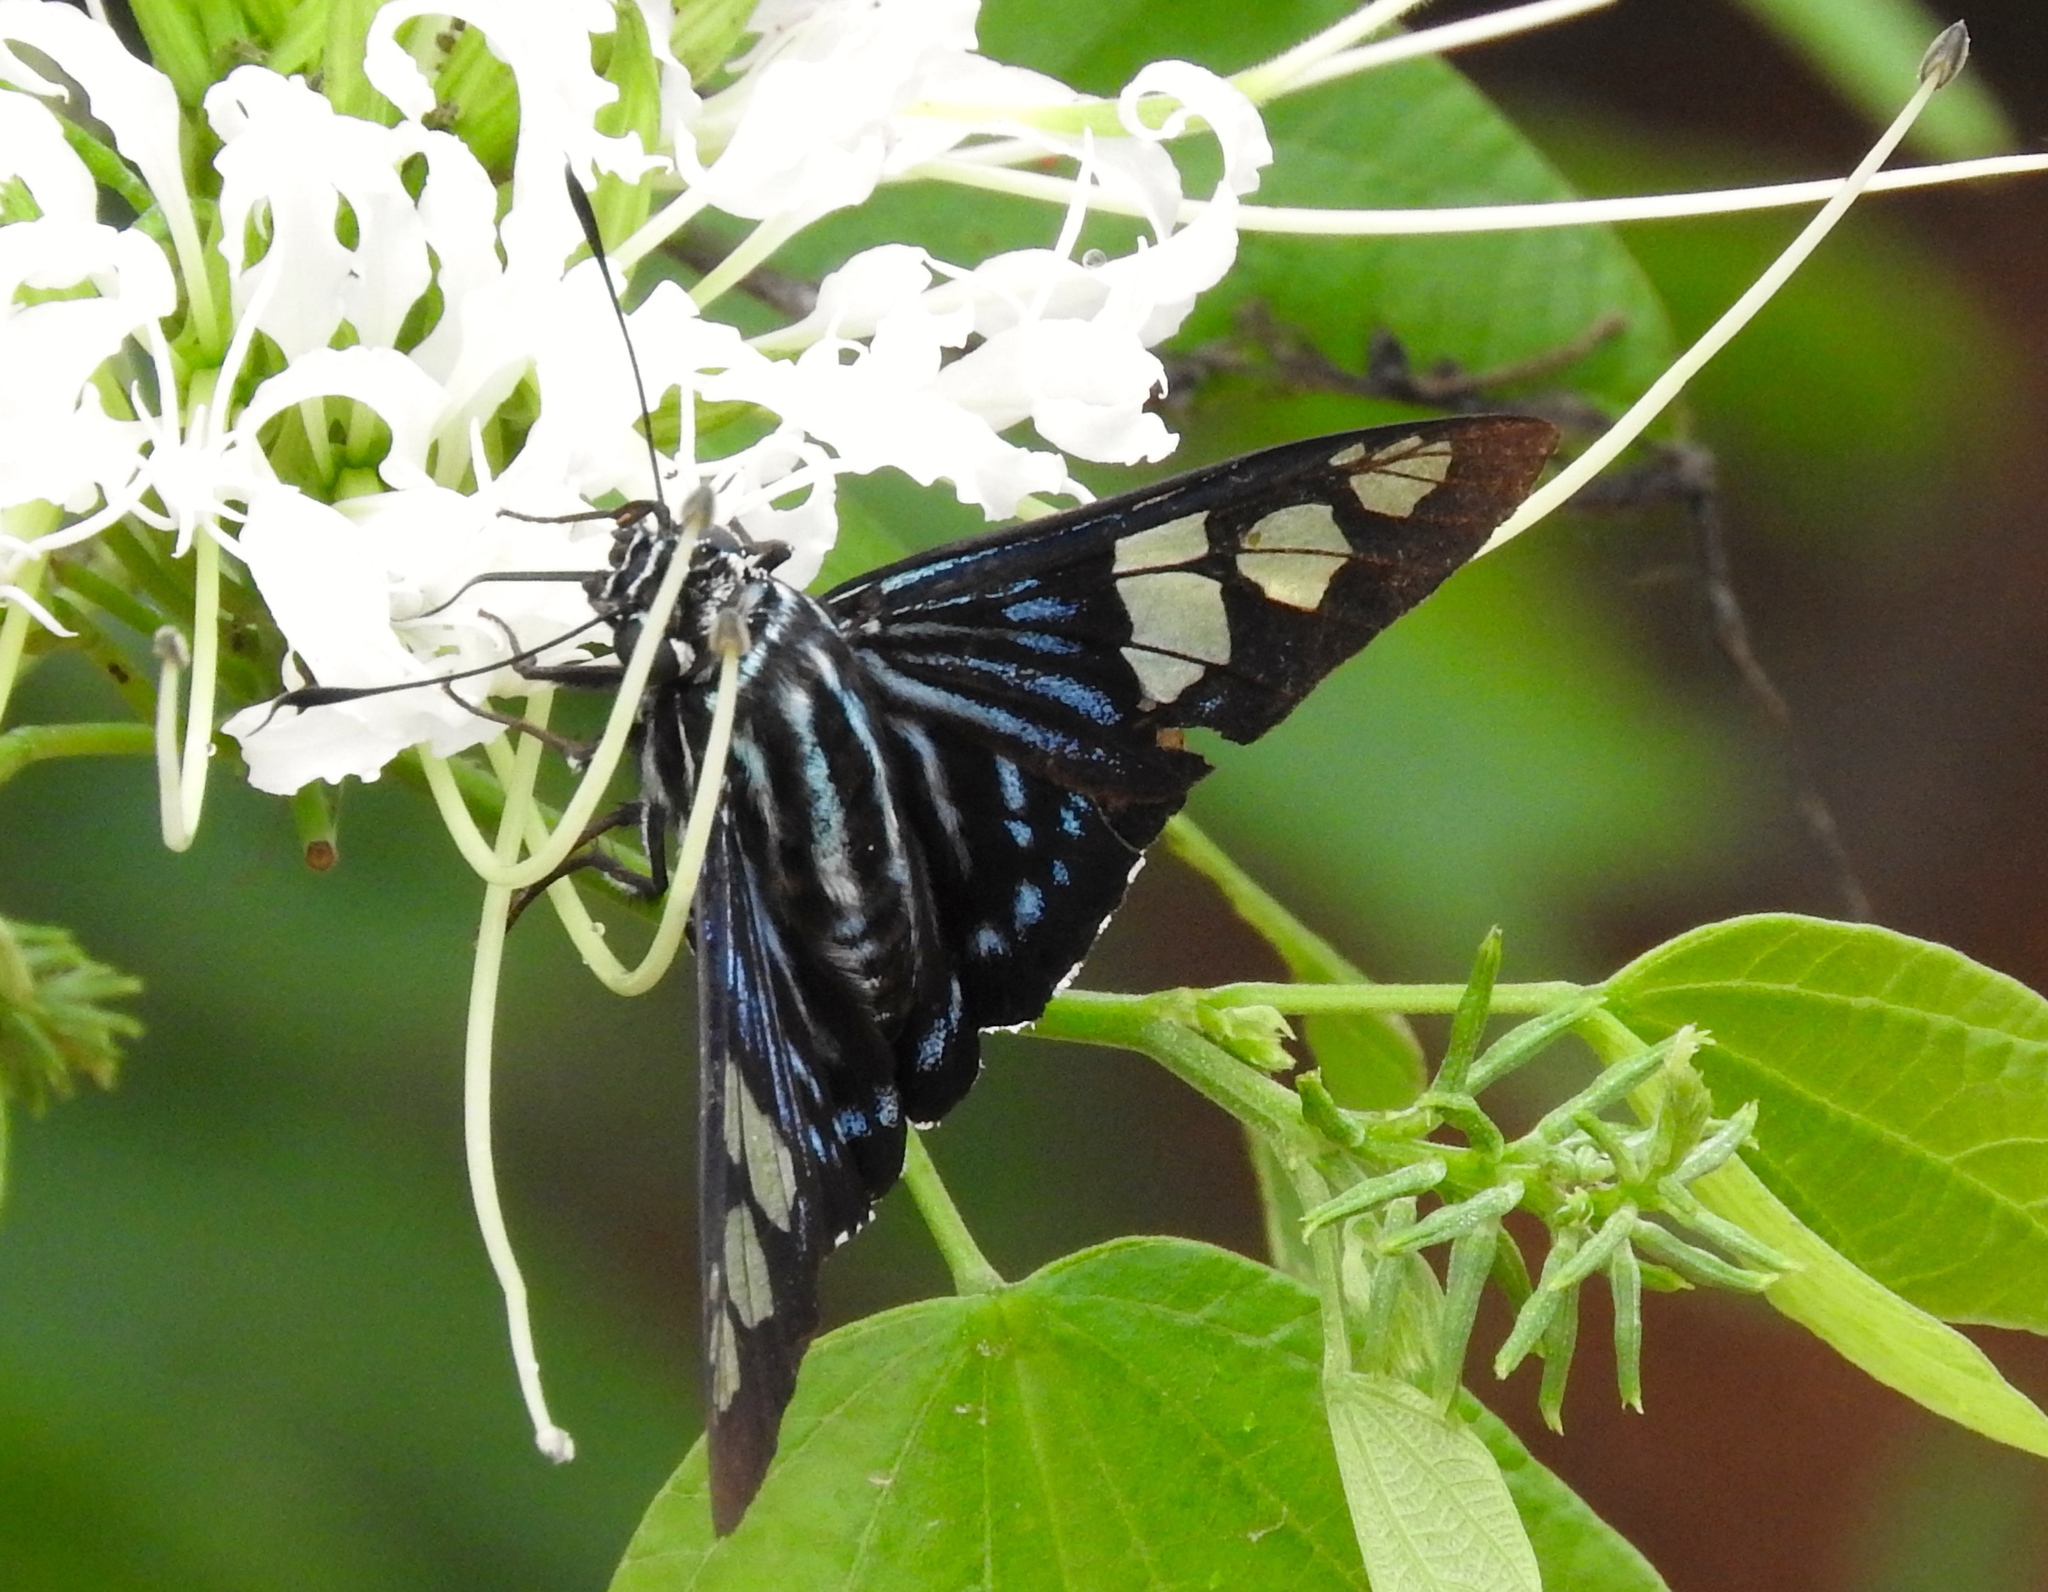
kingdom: Animalia
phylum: Arthropoda
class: Insecta
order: Lepidoptera
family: Hesperiidae
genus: Phocides
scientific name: Phocides pigmalion
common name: Mangrove skipper
